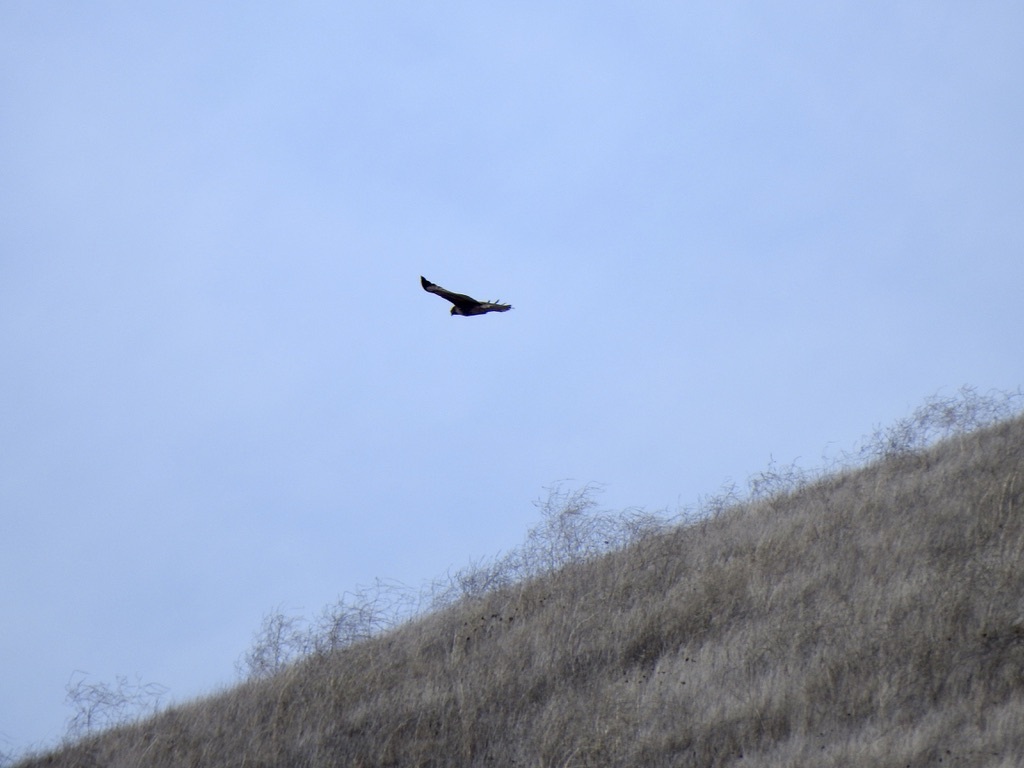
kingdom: Animalia
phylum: Chordata
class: Aves
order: Accipitriformes
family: Accipitridae
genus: Buteo
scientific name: Buteo jamaicensis
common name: Red-tailed hawk
